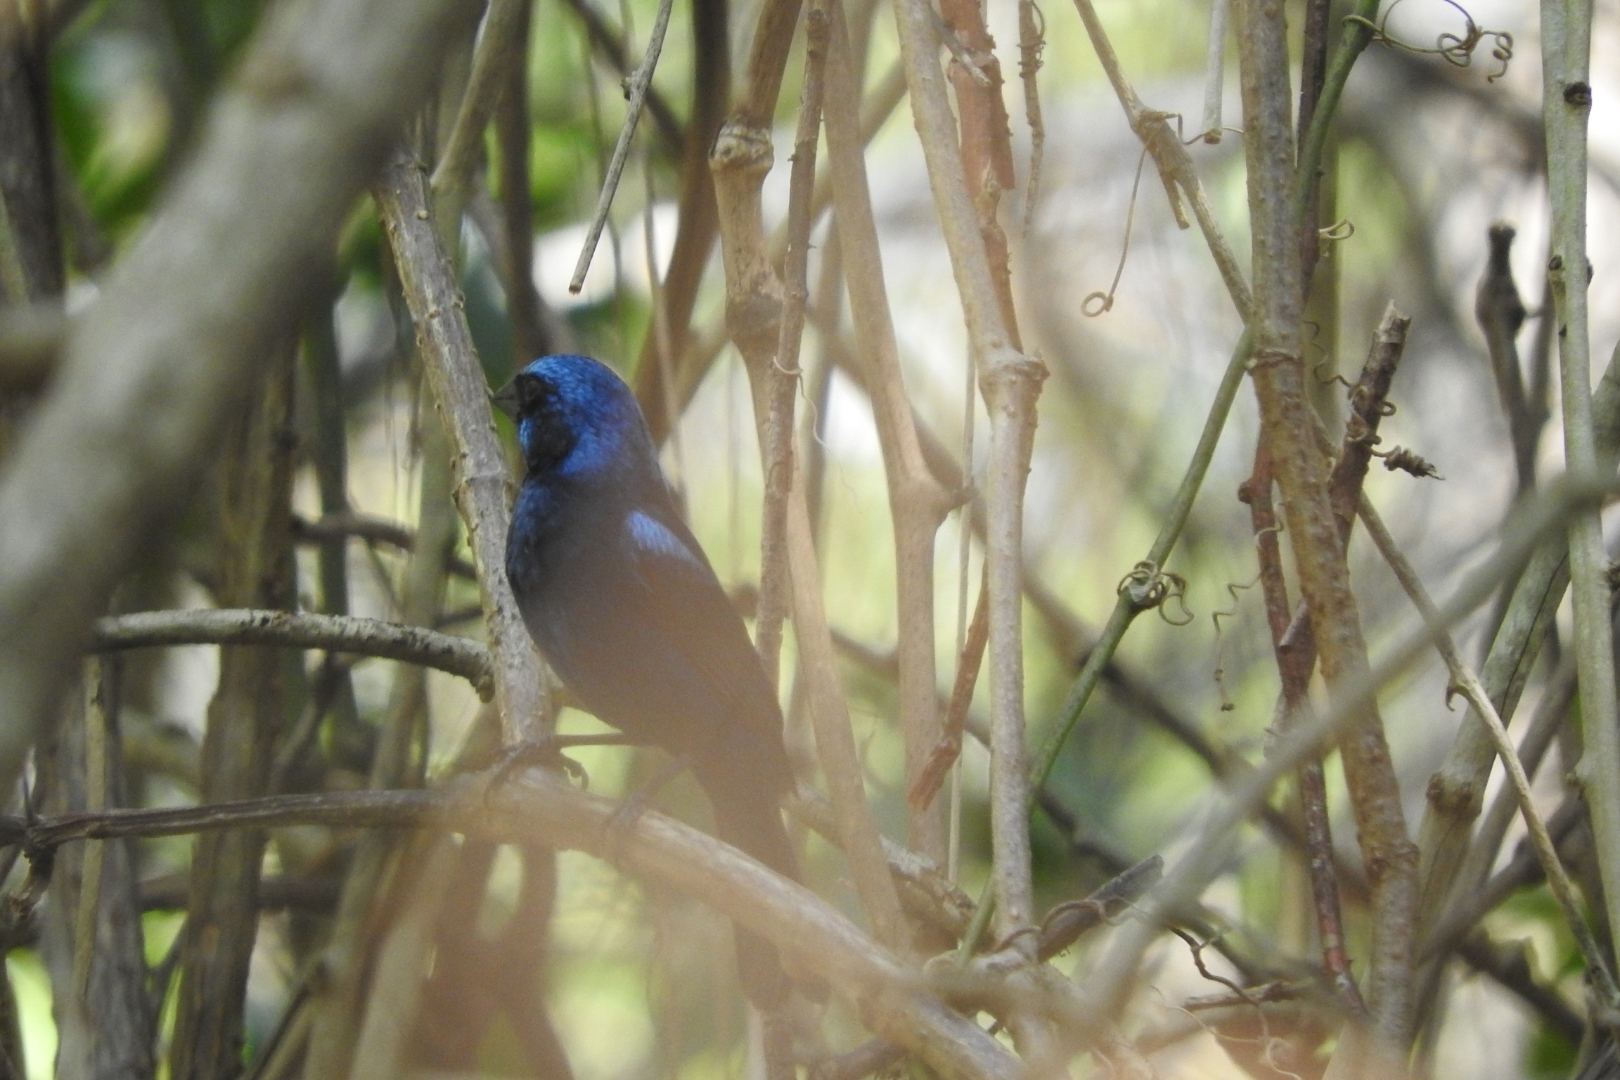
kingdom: Animalia
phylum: Chordata
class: Aves
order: Passeriformes
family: Cardinalidae
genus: Cyanocompsa
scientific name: Cyanocompsa parellina
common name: Blue bunting
